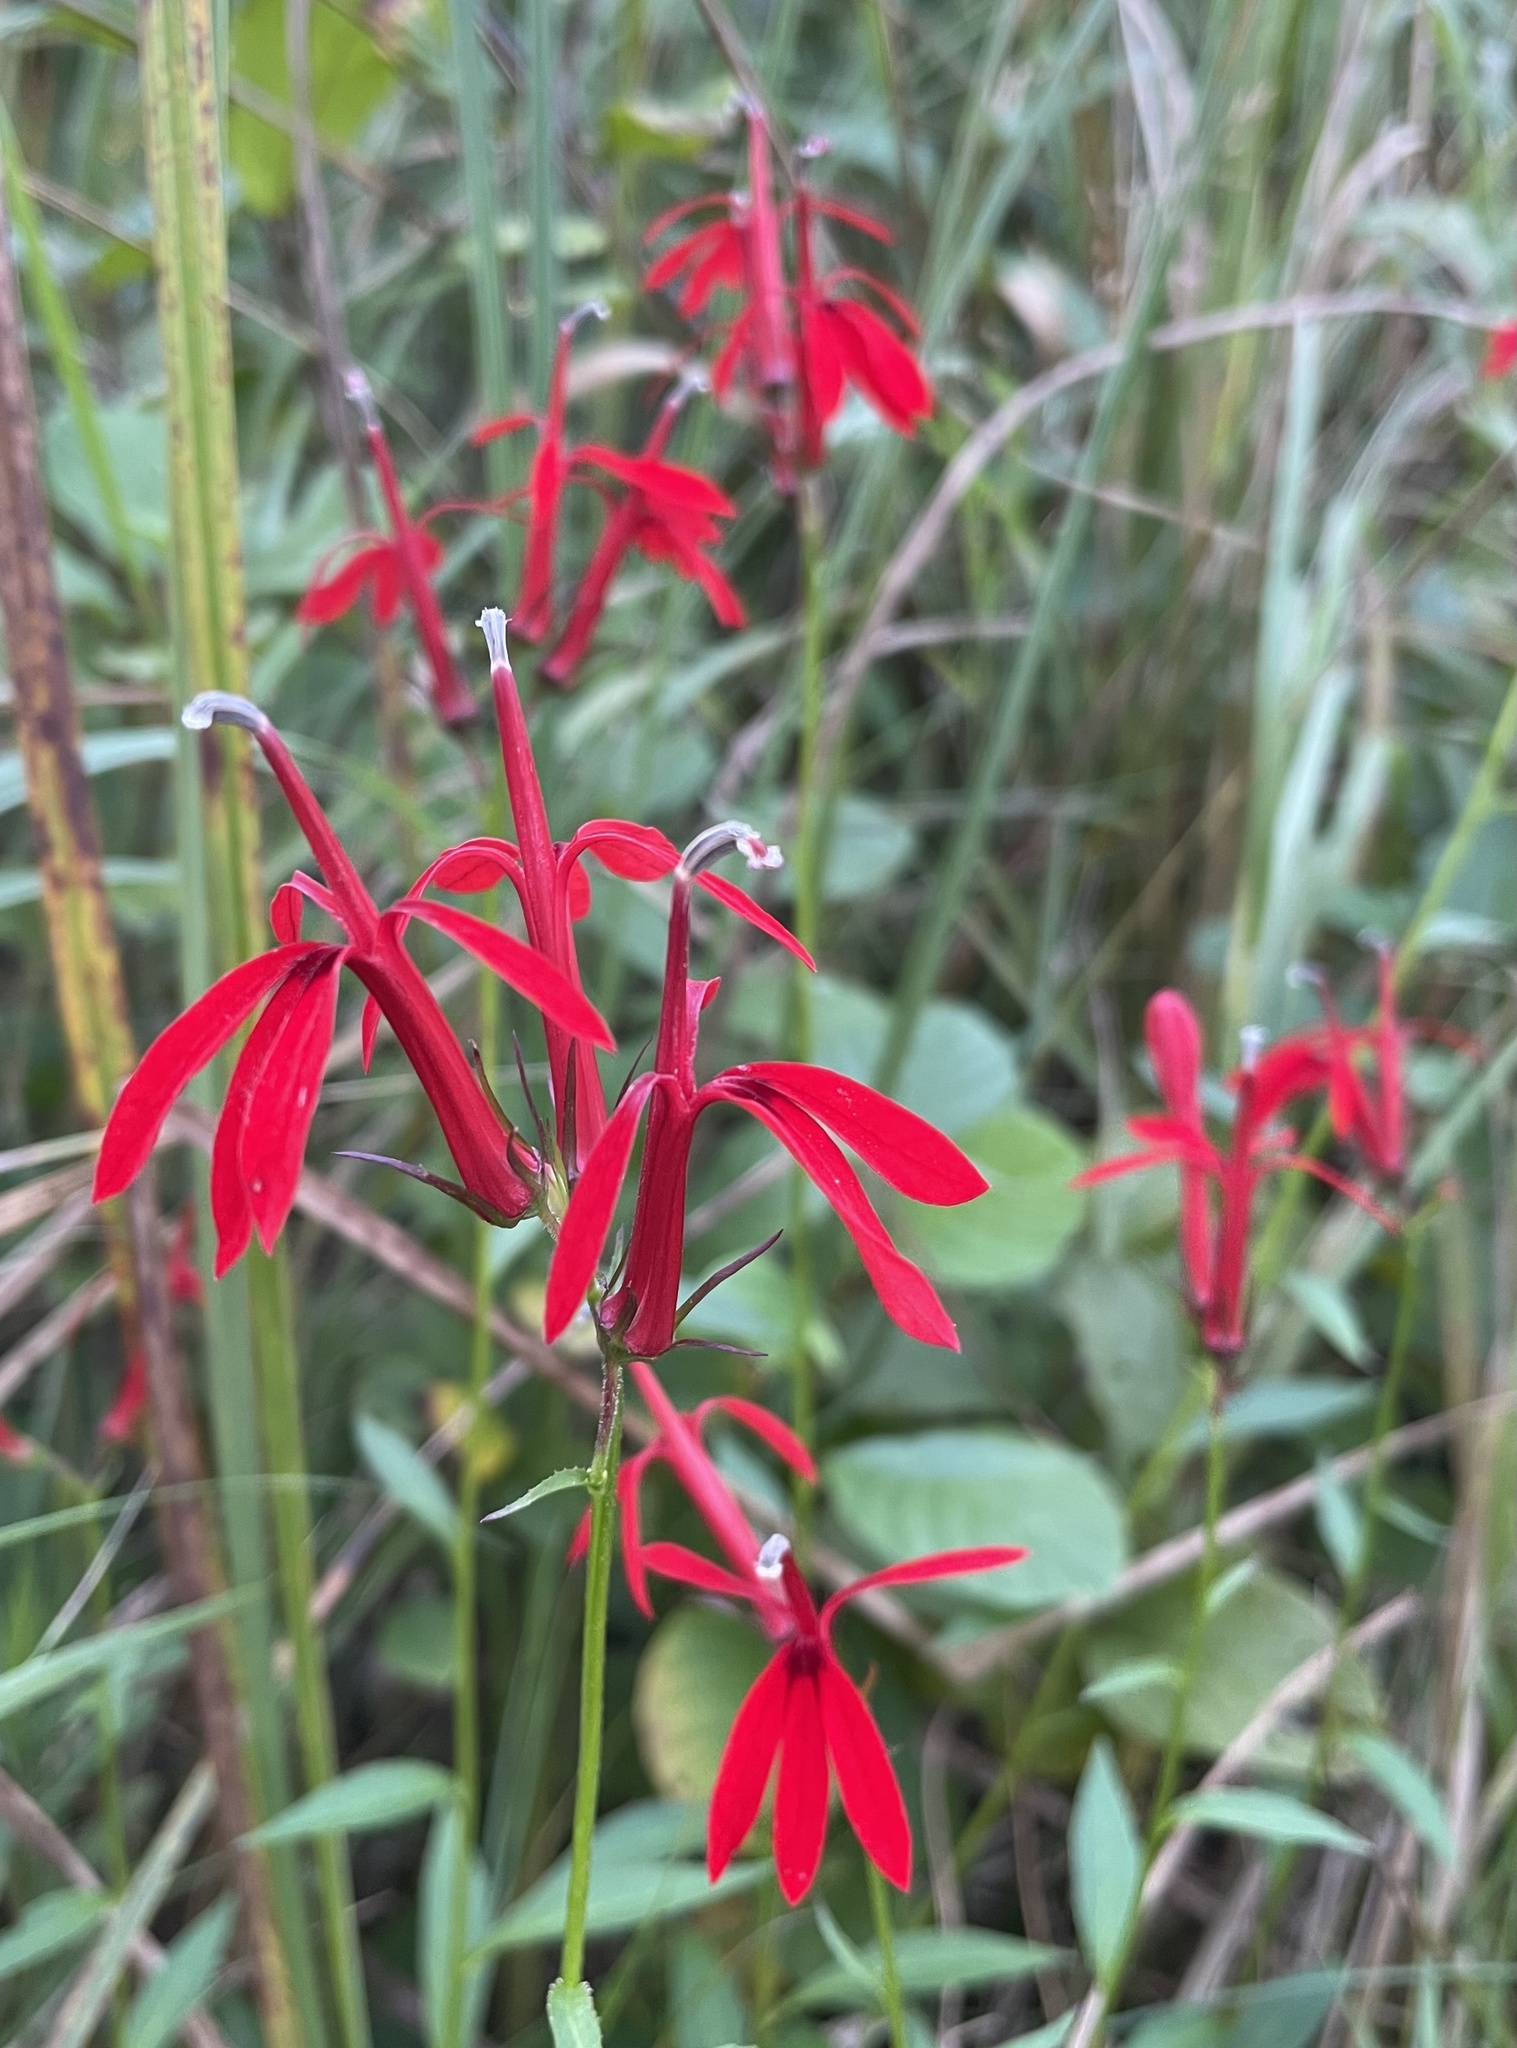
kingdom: Plantae
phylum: Tracheophyta
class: Magnoliopsida
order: Asterales
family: Campanulaceae
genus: Lobelia
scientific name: Lobelia cardinalis
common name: Cardinal flower
